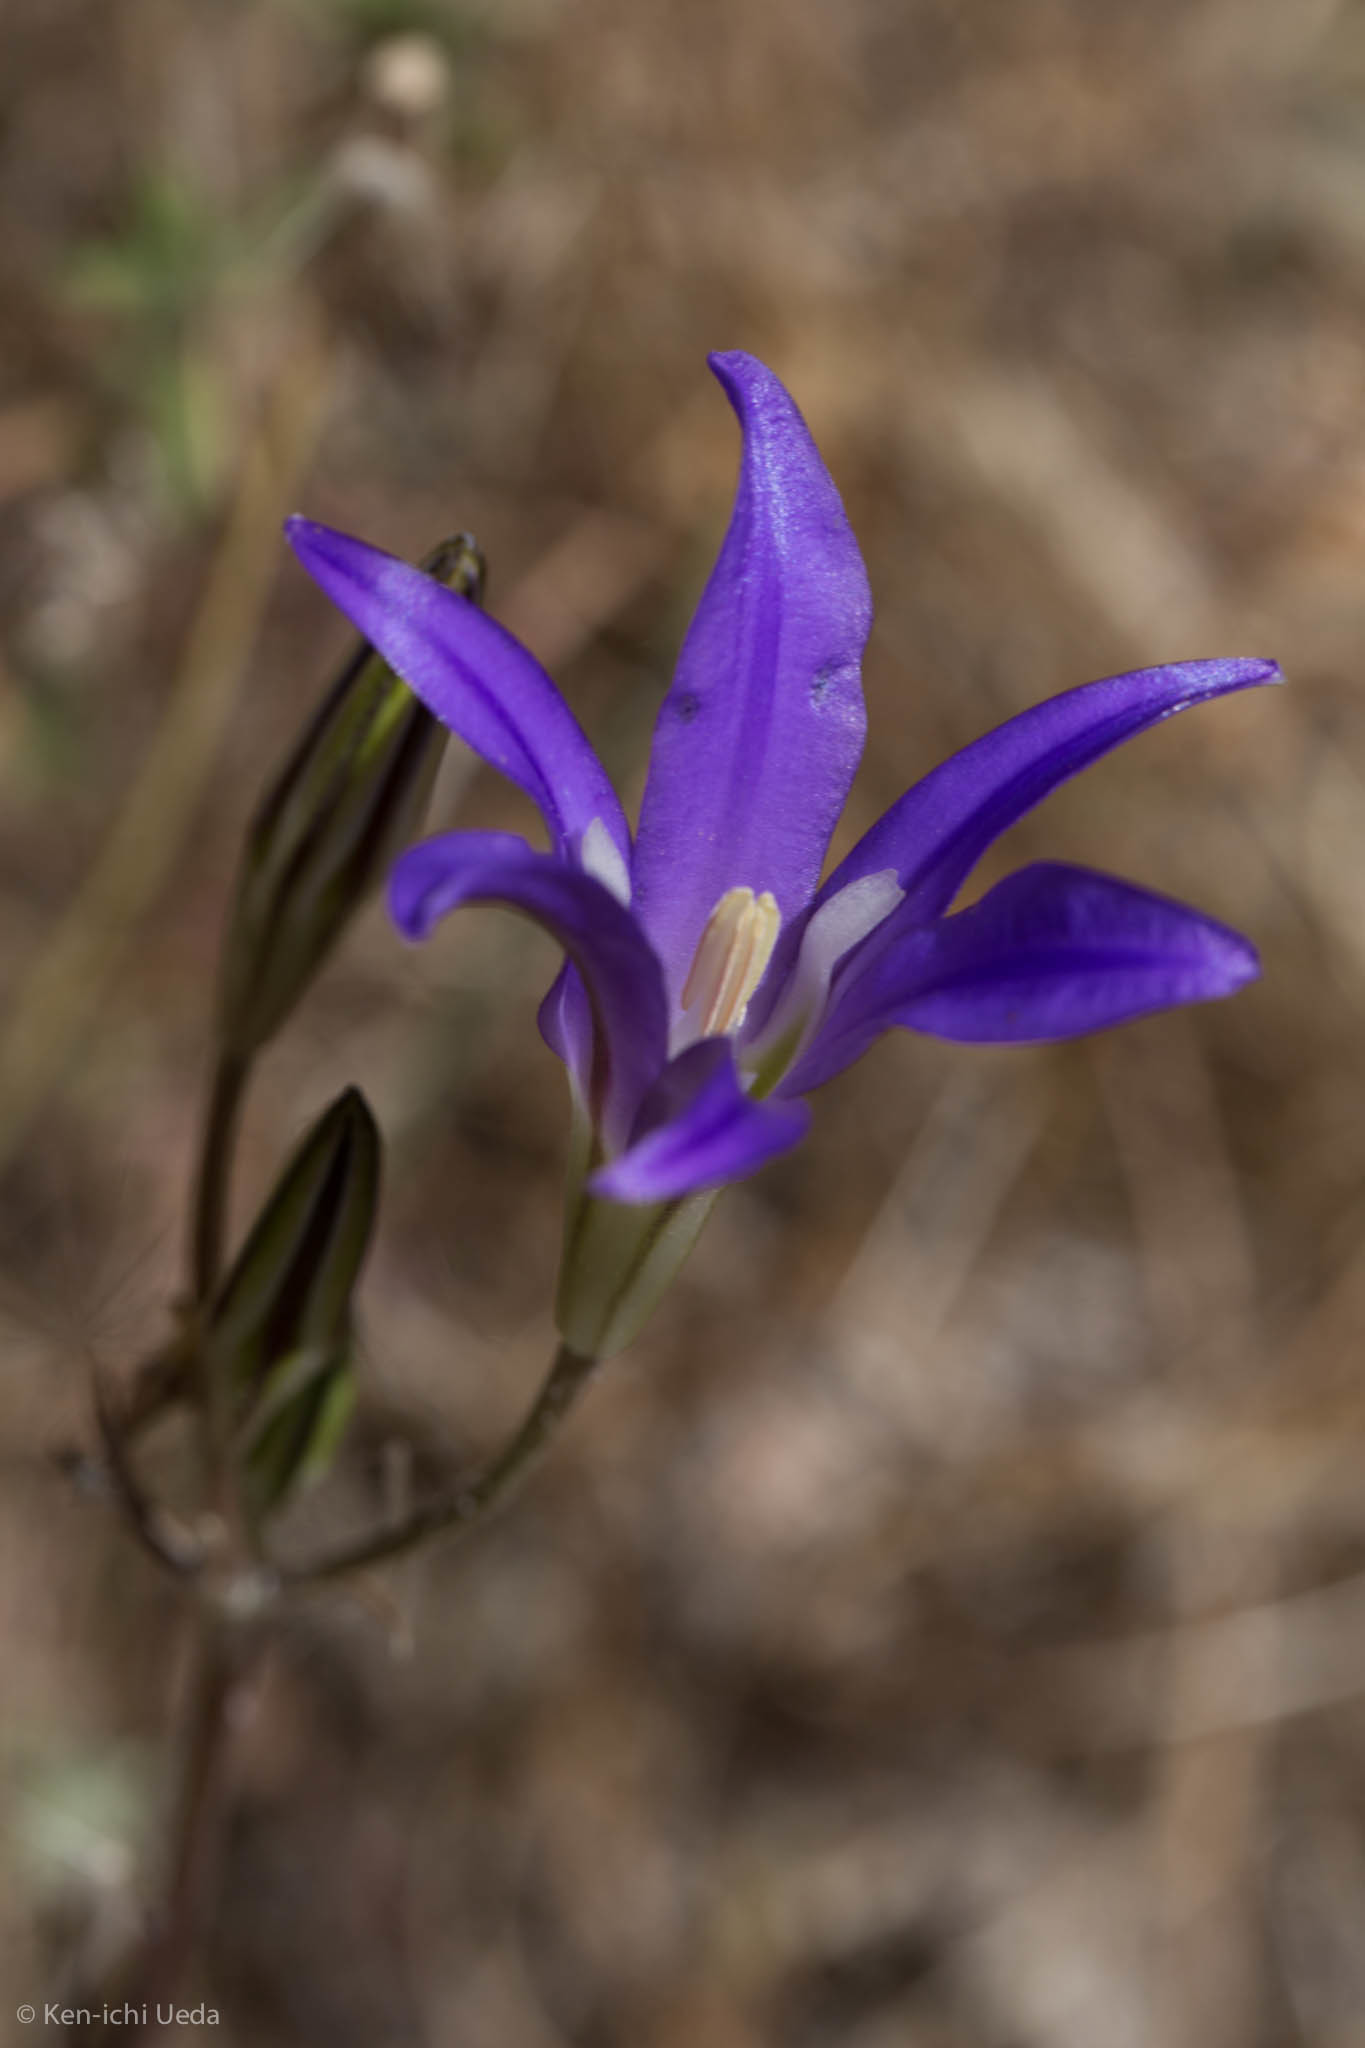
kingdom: Plantae
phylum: Tracheophyta
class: Liliopsida
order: Asparagales
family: Asparagaceae
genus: Brodiaea
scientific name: Brodiaea elegans
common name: Elegant cluster-lily
